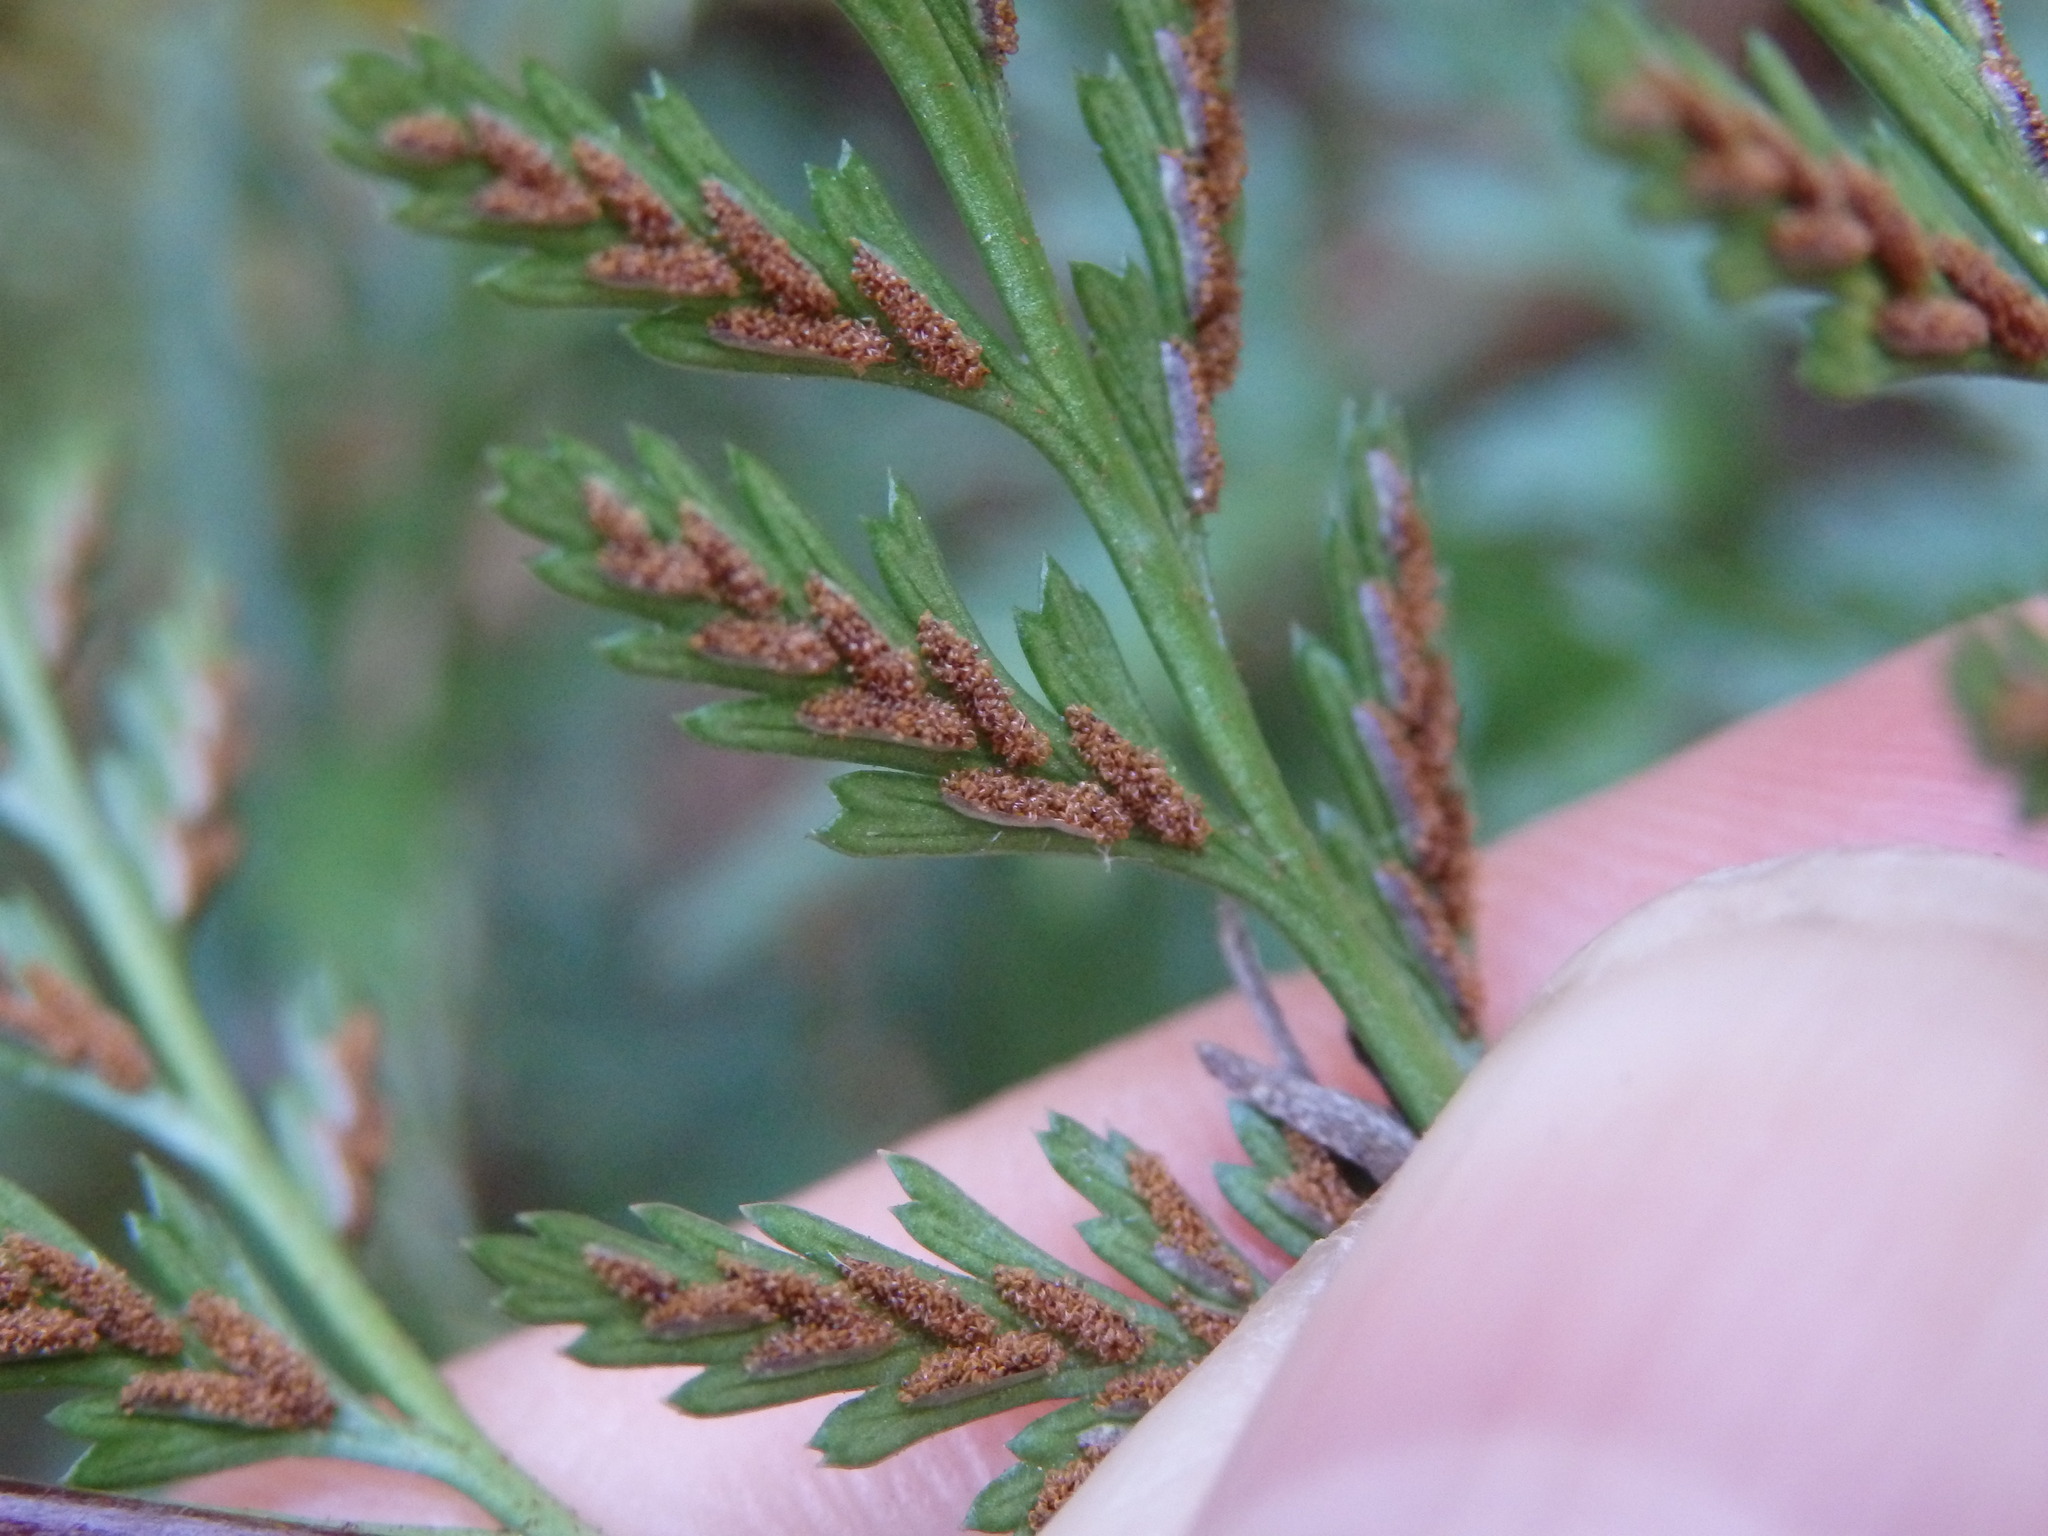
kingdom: Plantae
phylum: Tracheophyta
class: Polypodiopsida
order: Polypodiales
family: Aspleniaceae
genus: Asplenium
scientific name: Asplenium onopteris
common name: Irish spleenwort
